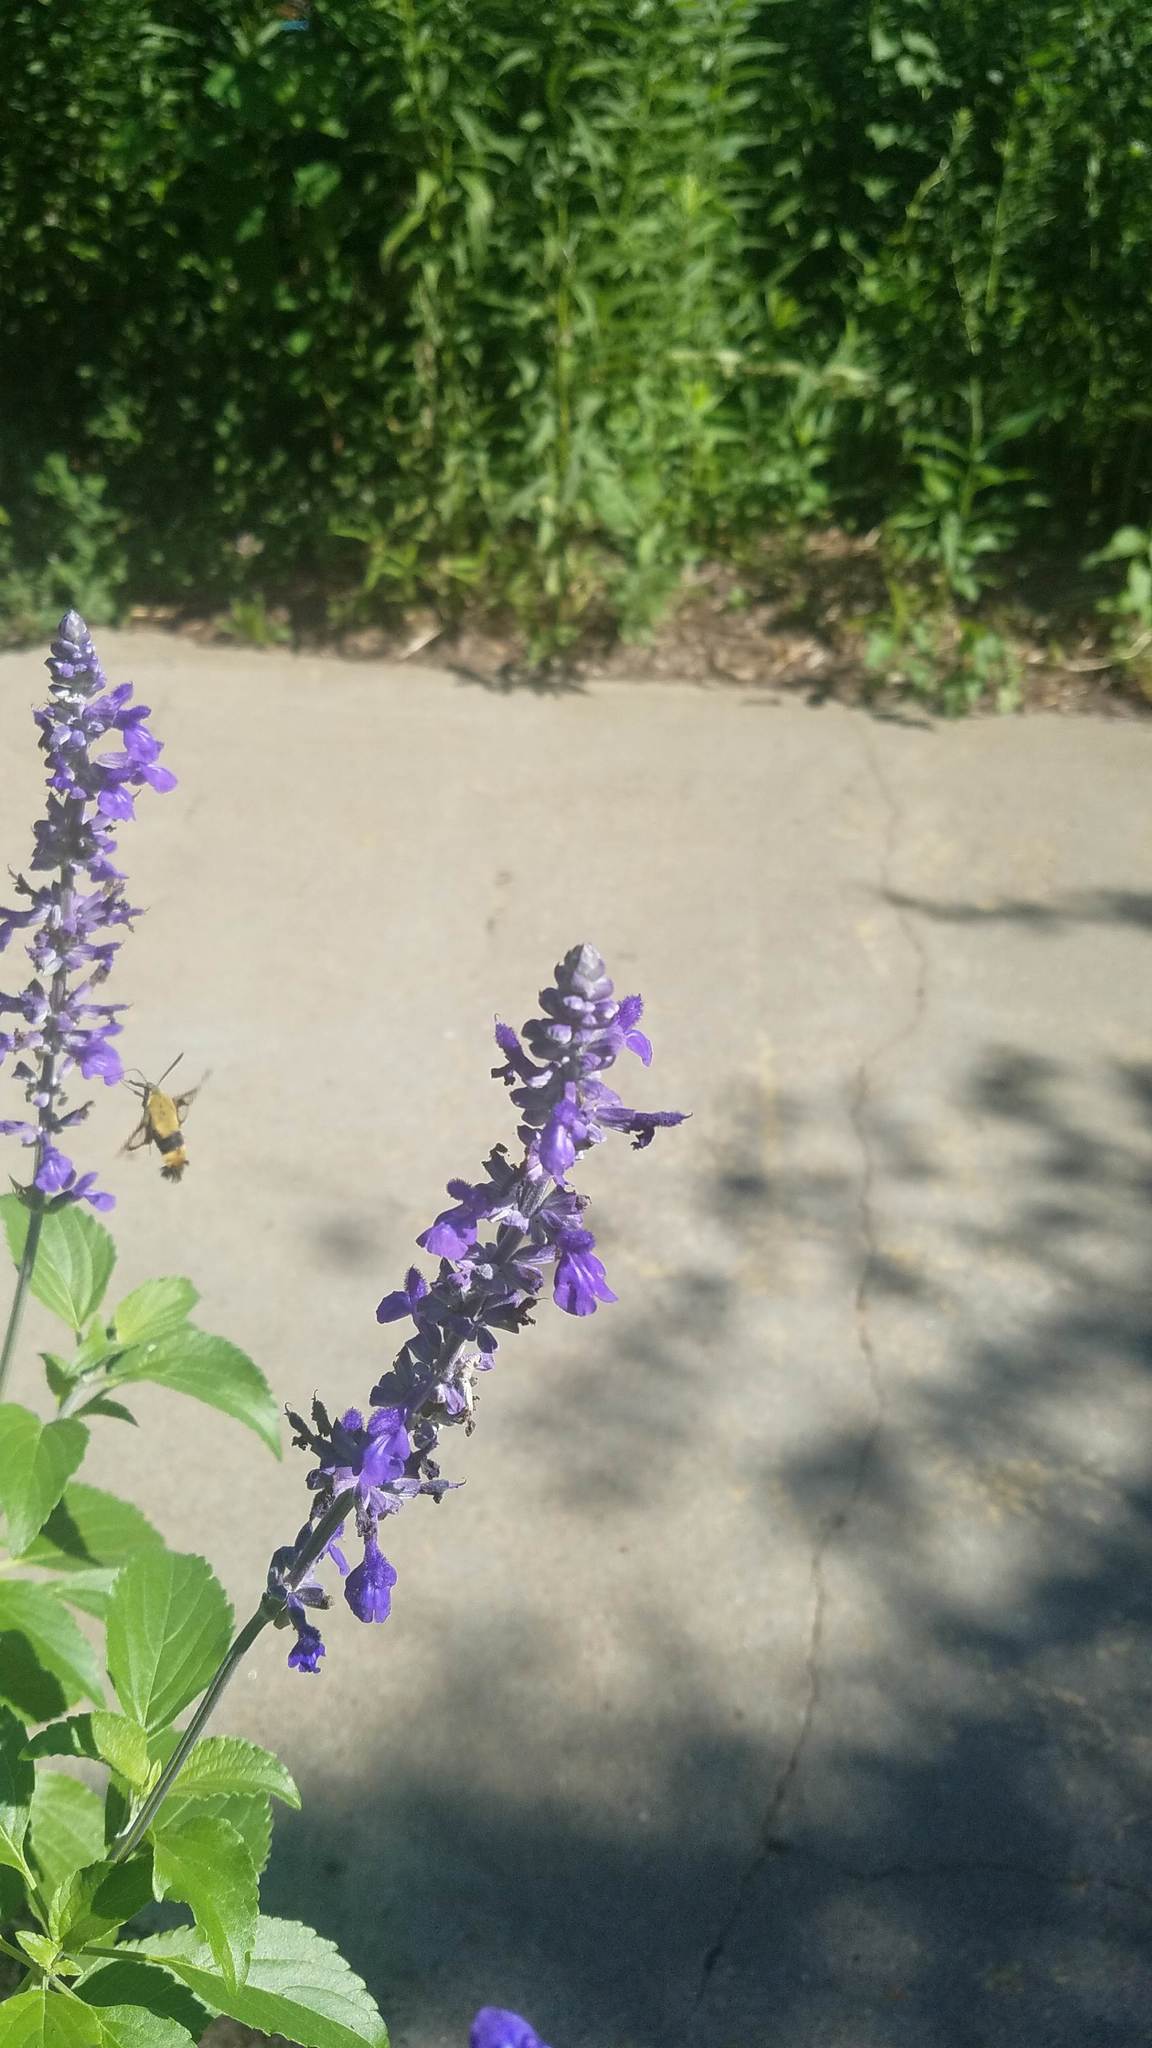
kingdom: Animalia
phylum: Arthropoda
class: Insecta
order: Lepidoptera
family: Sphingidae
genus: Hemaris
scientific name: Hemaris diffinis
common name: Bumblebee moth
